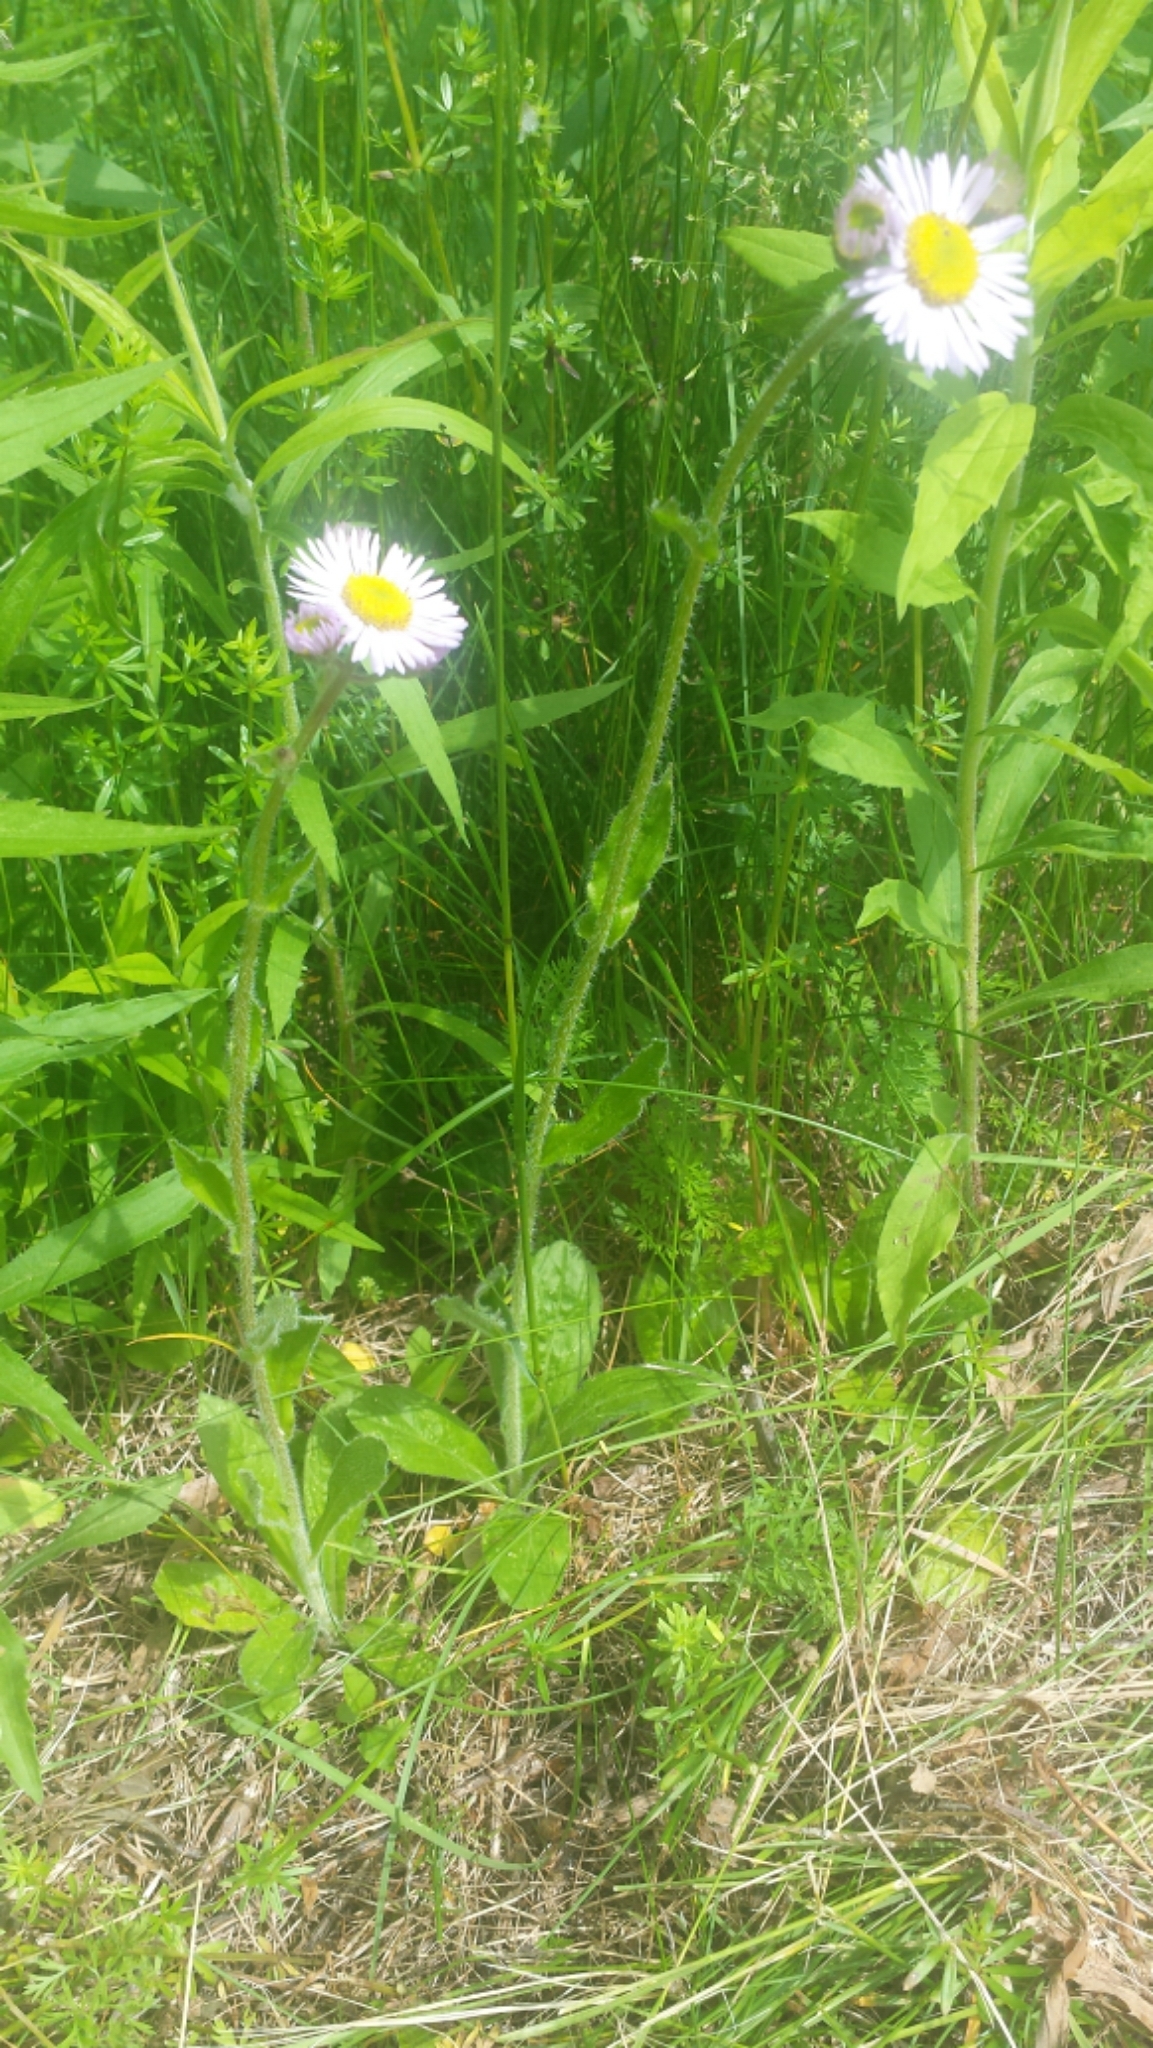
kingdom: Plantae
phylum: Tracheophyta
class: Magnoliopsida
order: Asterales
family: Asteraceae
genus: Erigeron
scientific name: Erigeron pulchellus
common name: Hairy fleabane
